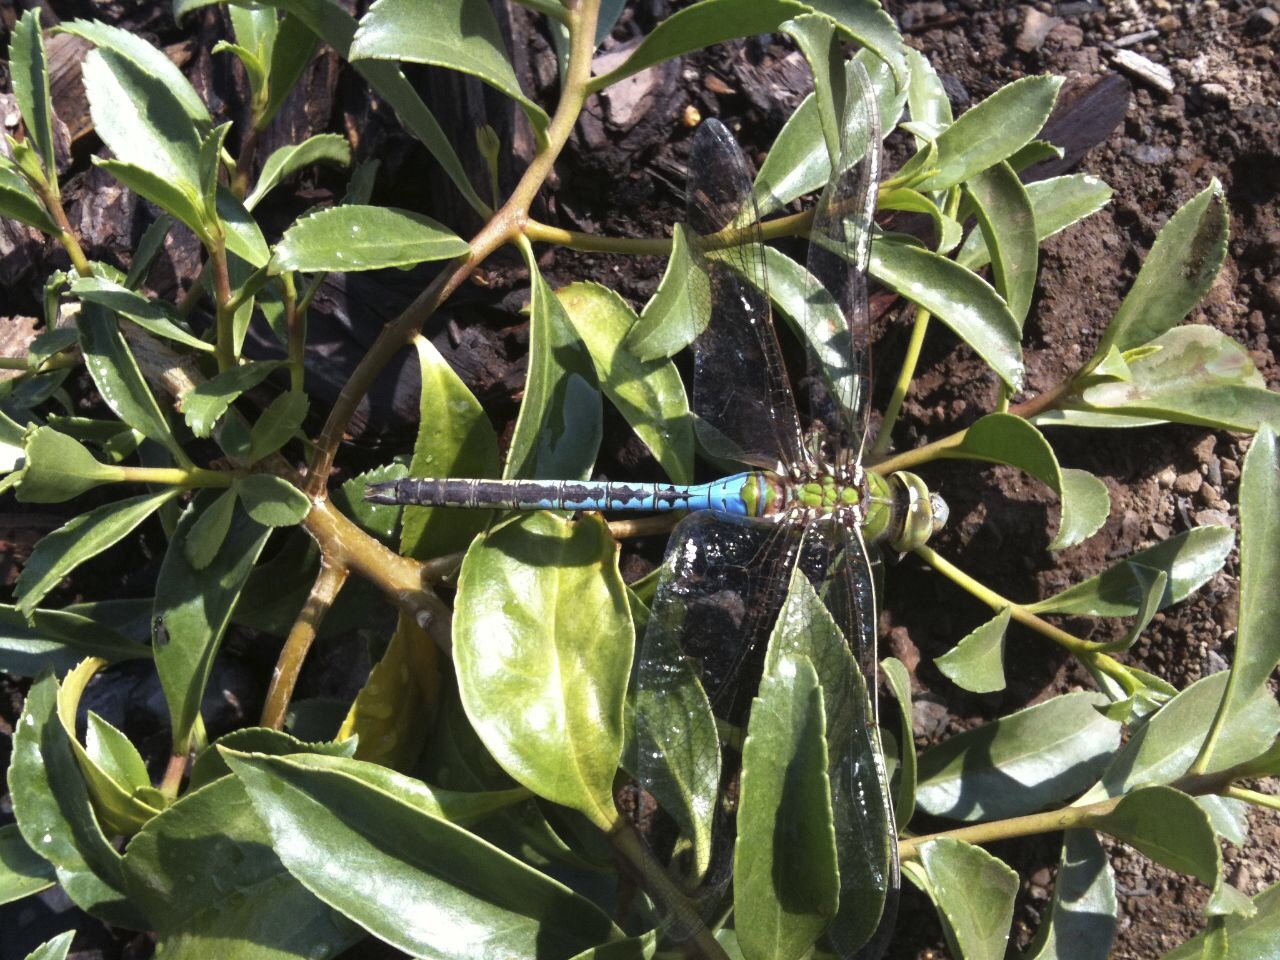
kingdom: Animalia
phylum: Arthropoda
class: Insecta
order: Odonata
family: Aeshnidae
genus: Anax
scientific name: Anax junius
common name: Common green darner
